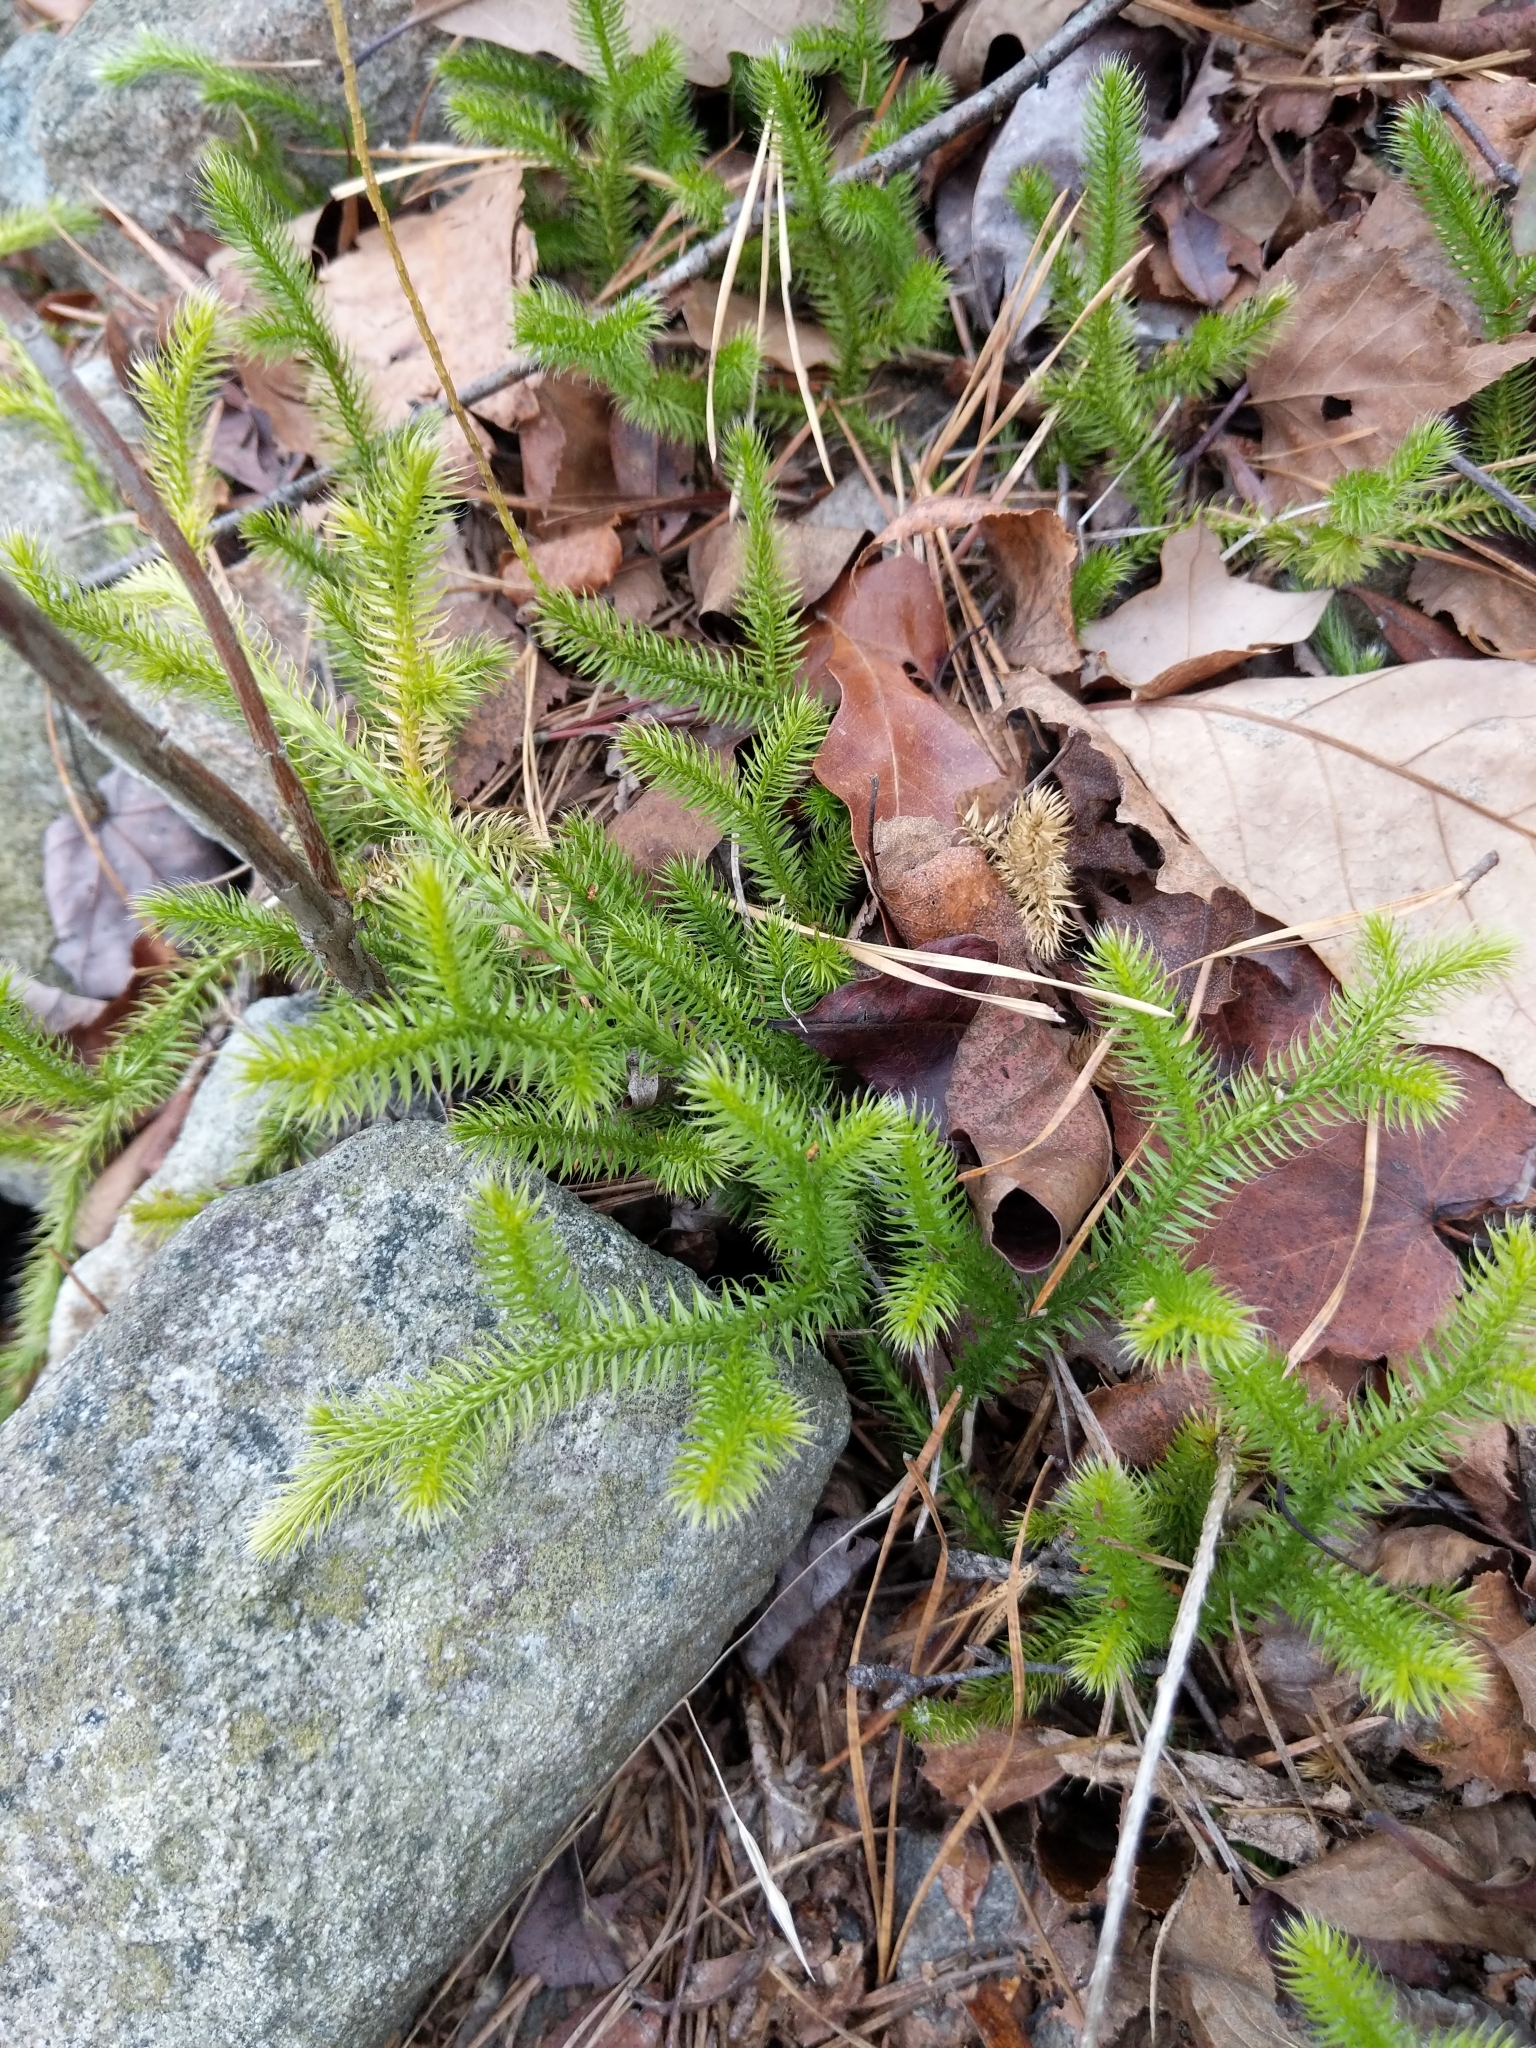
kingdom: Plantae
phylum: Tracheophyta
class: Lycopodiopsida
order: Lycopodiales
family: Lycopodiaceae
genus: Lycopodium
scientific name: Lycopodium clavatum
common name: Stag's-horn clubmoss
